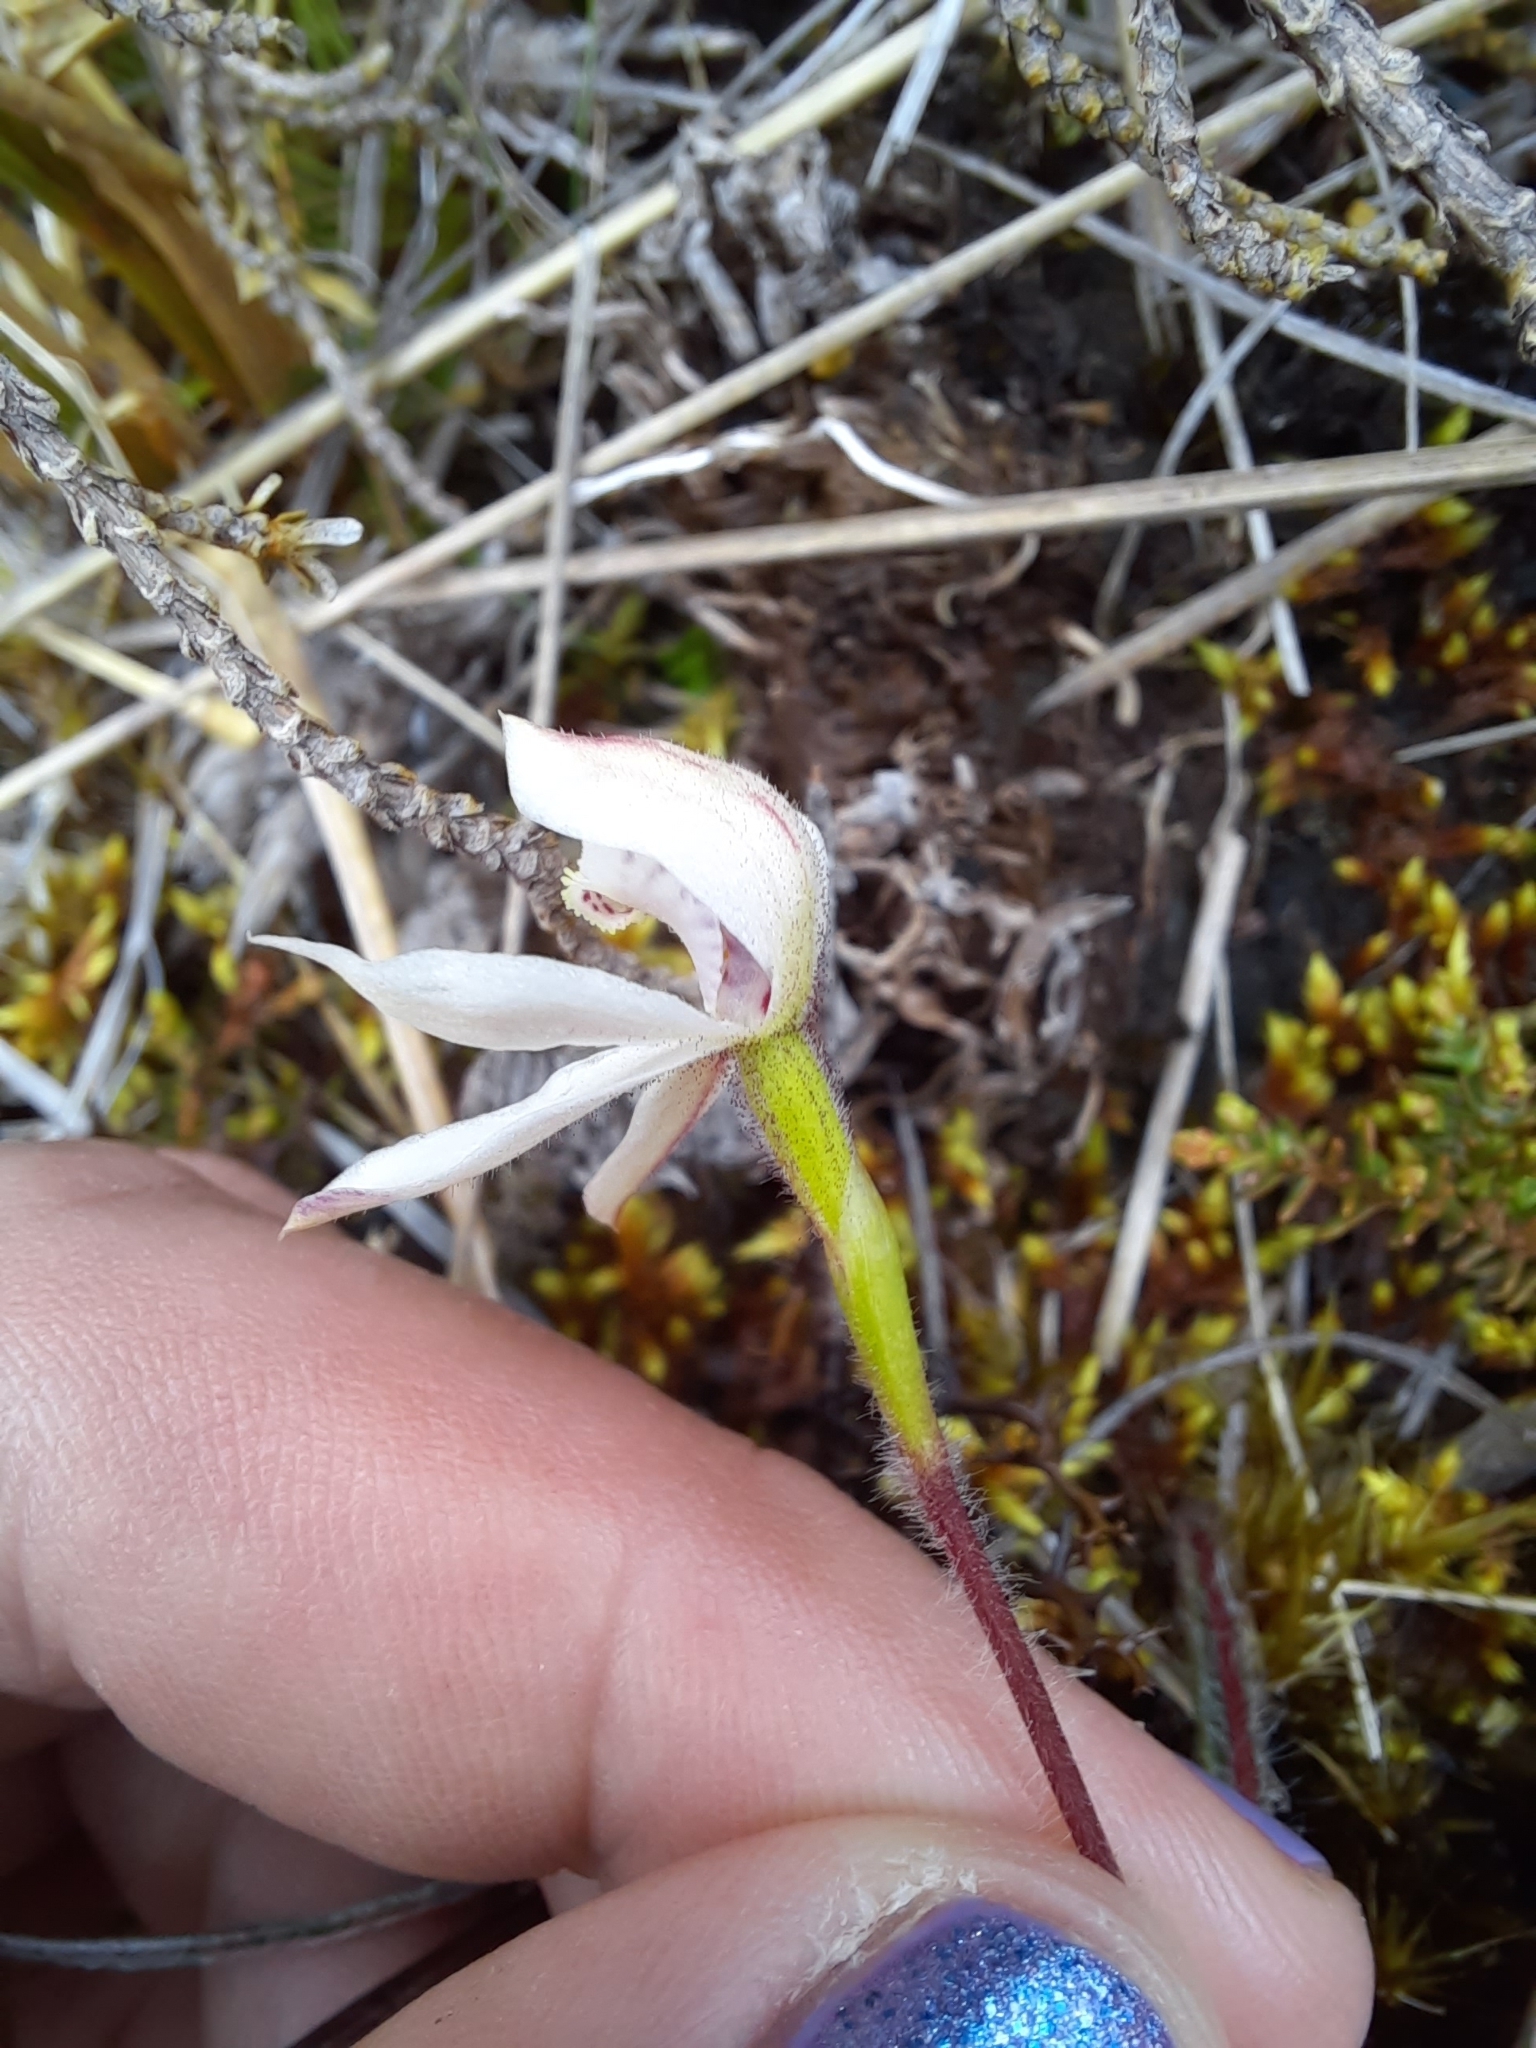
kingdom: Plantae
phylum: Tracheophyta
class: Liliopsida
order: Asparagales
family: Orchidaceae
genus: Caladenia
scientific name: Caladenia lyallii
